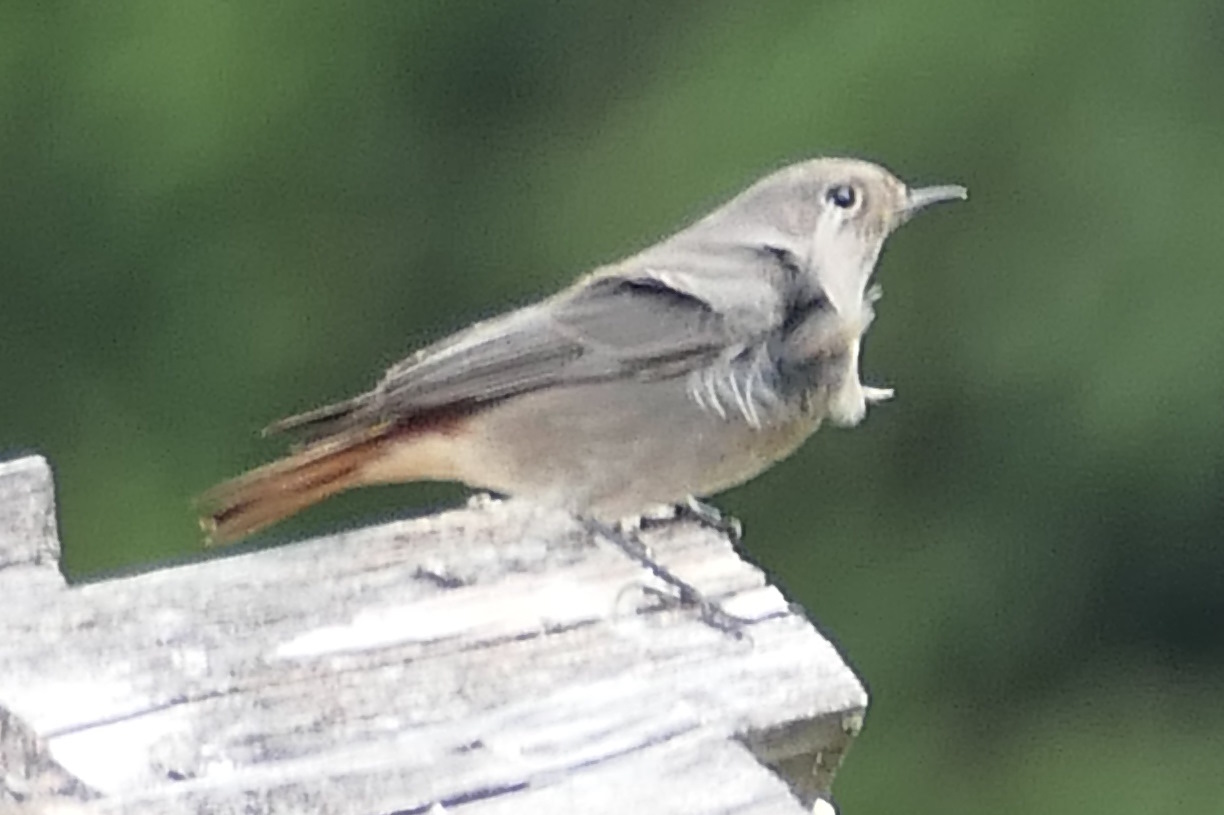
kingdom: Animalia
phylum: Chordata
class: Aves
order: Passeriformes
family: Muscicapidae
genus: Phoenicurus
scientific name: Phoenicurus ochruros
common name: Black redstart
